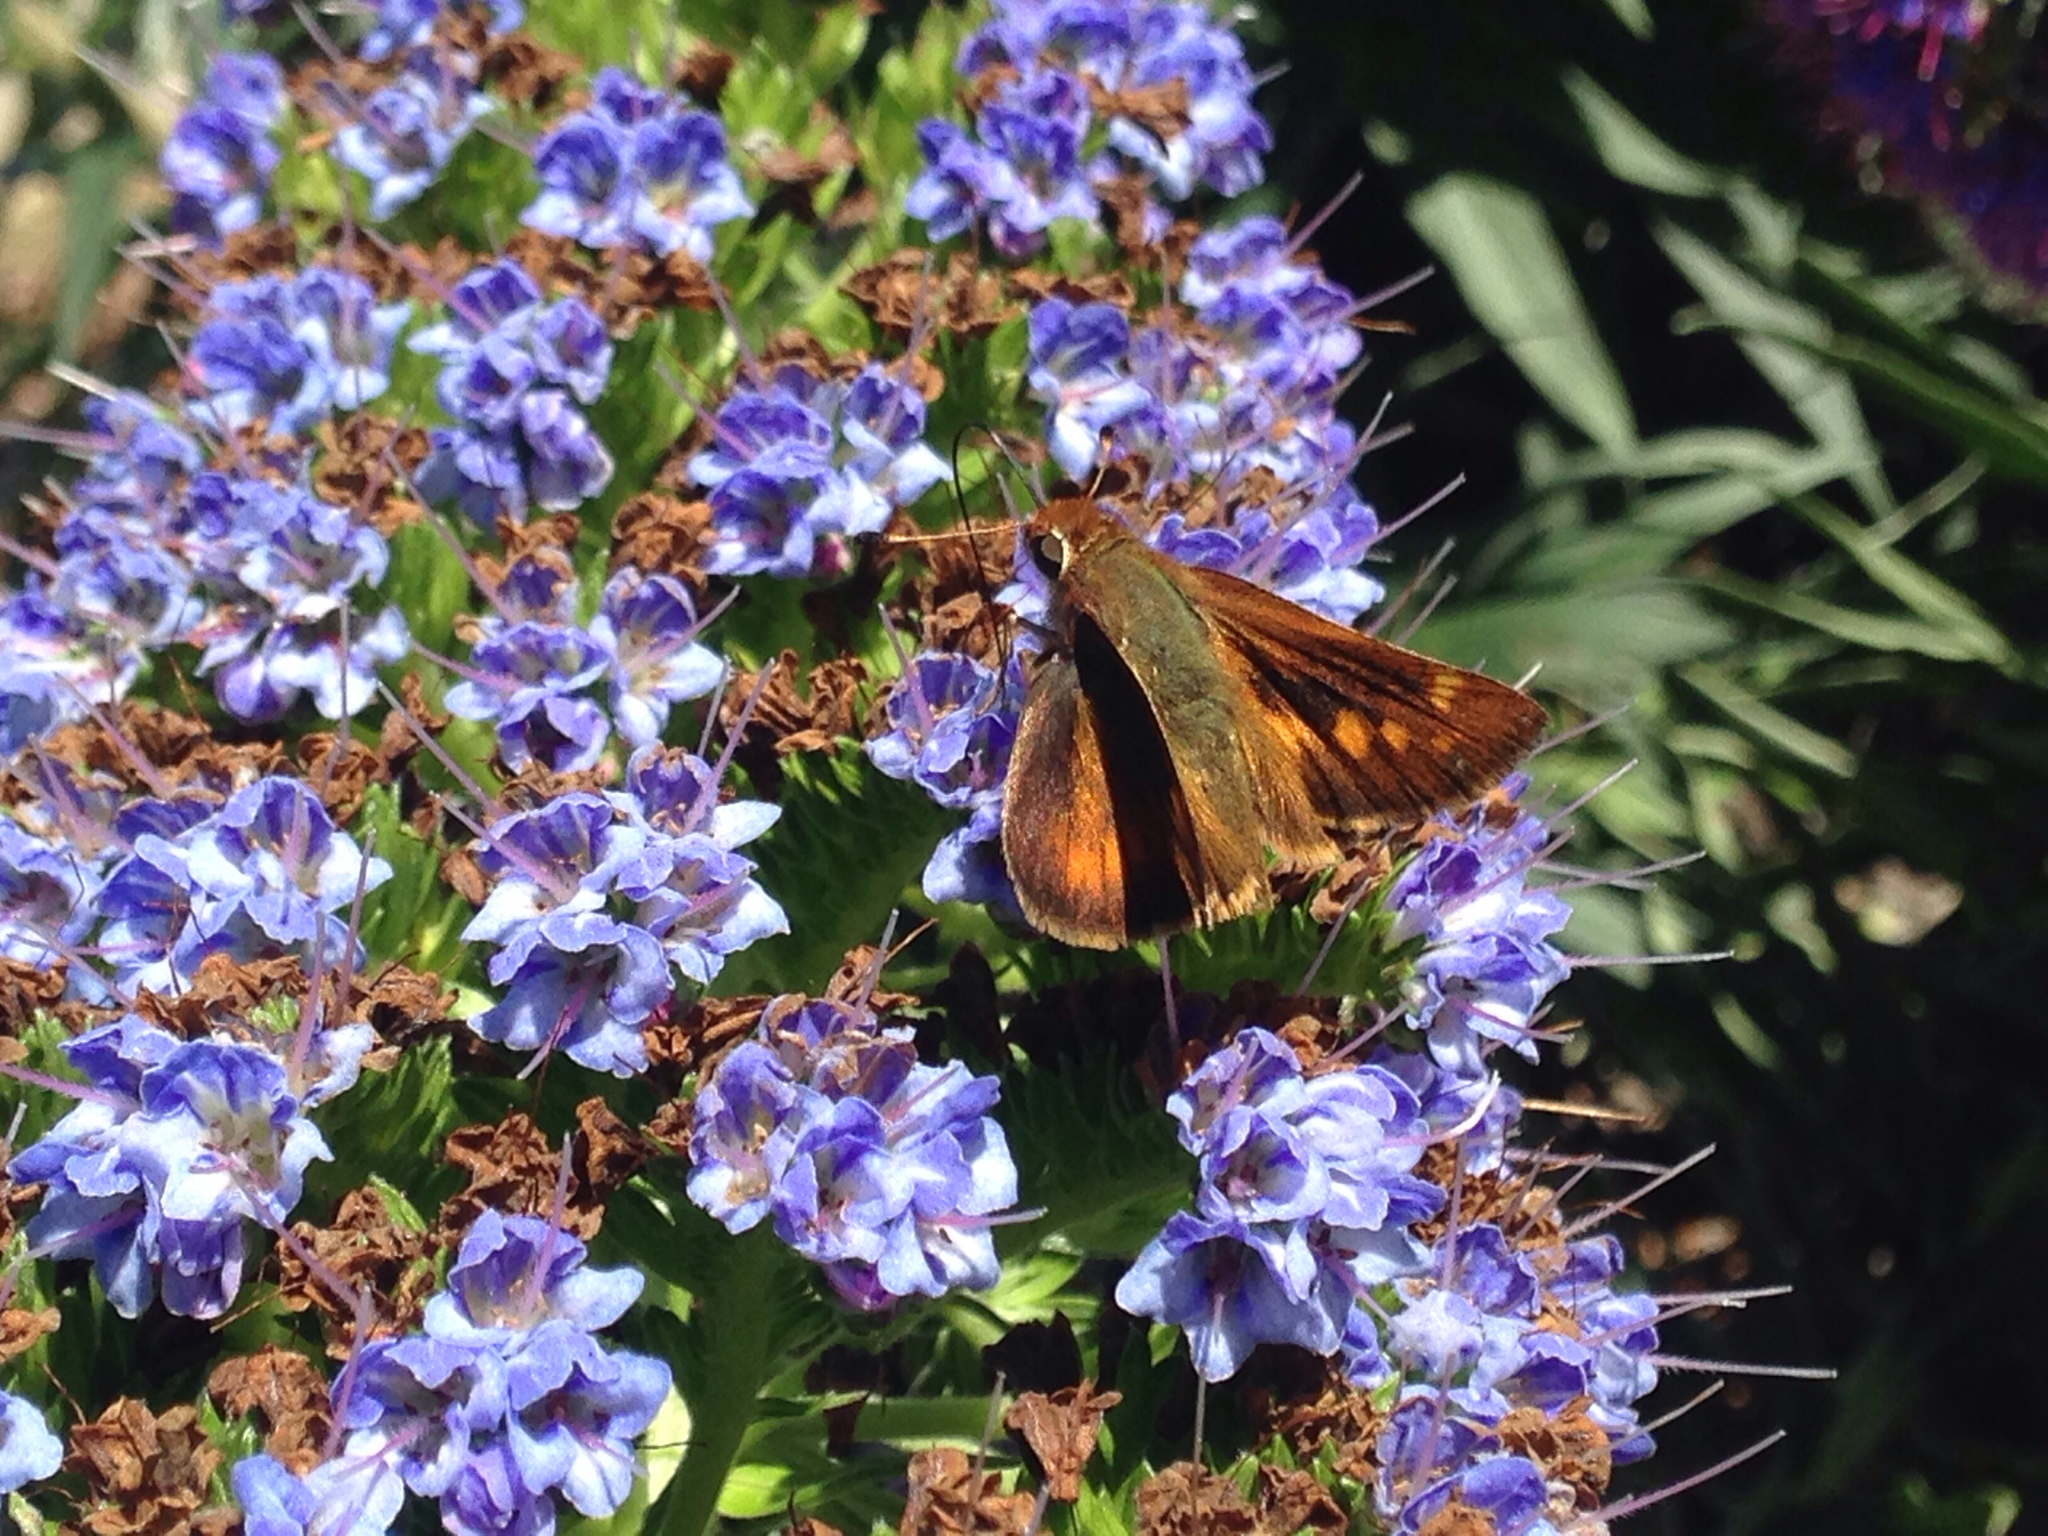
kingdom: Animalia
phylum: Arthropoda
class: Insecta
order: Lepidoptera
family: Hesperiidae
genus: Lon
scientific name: Lon melane
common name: Umber skipper
